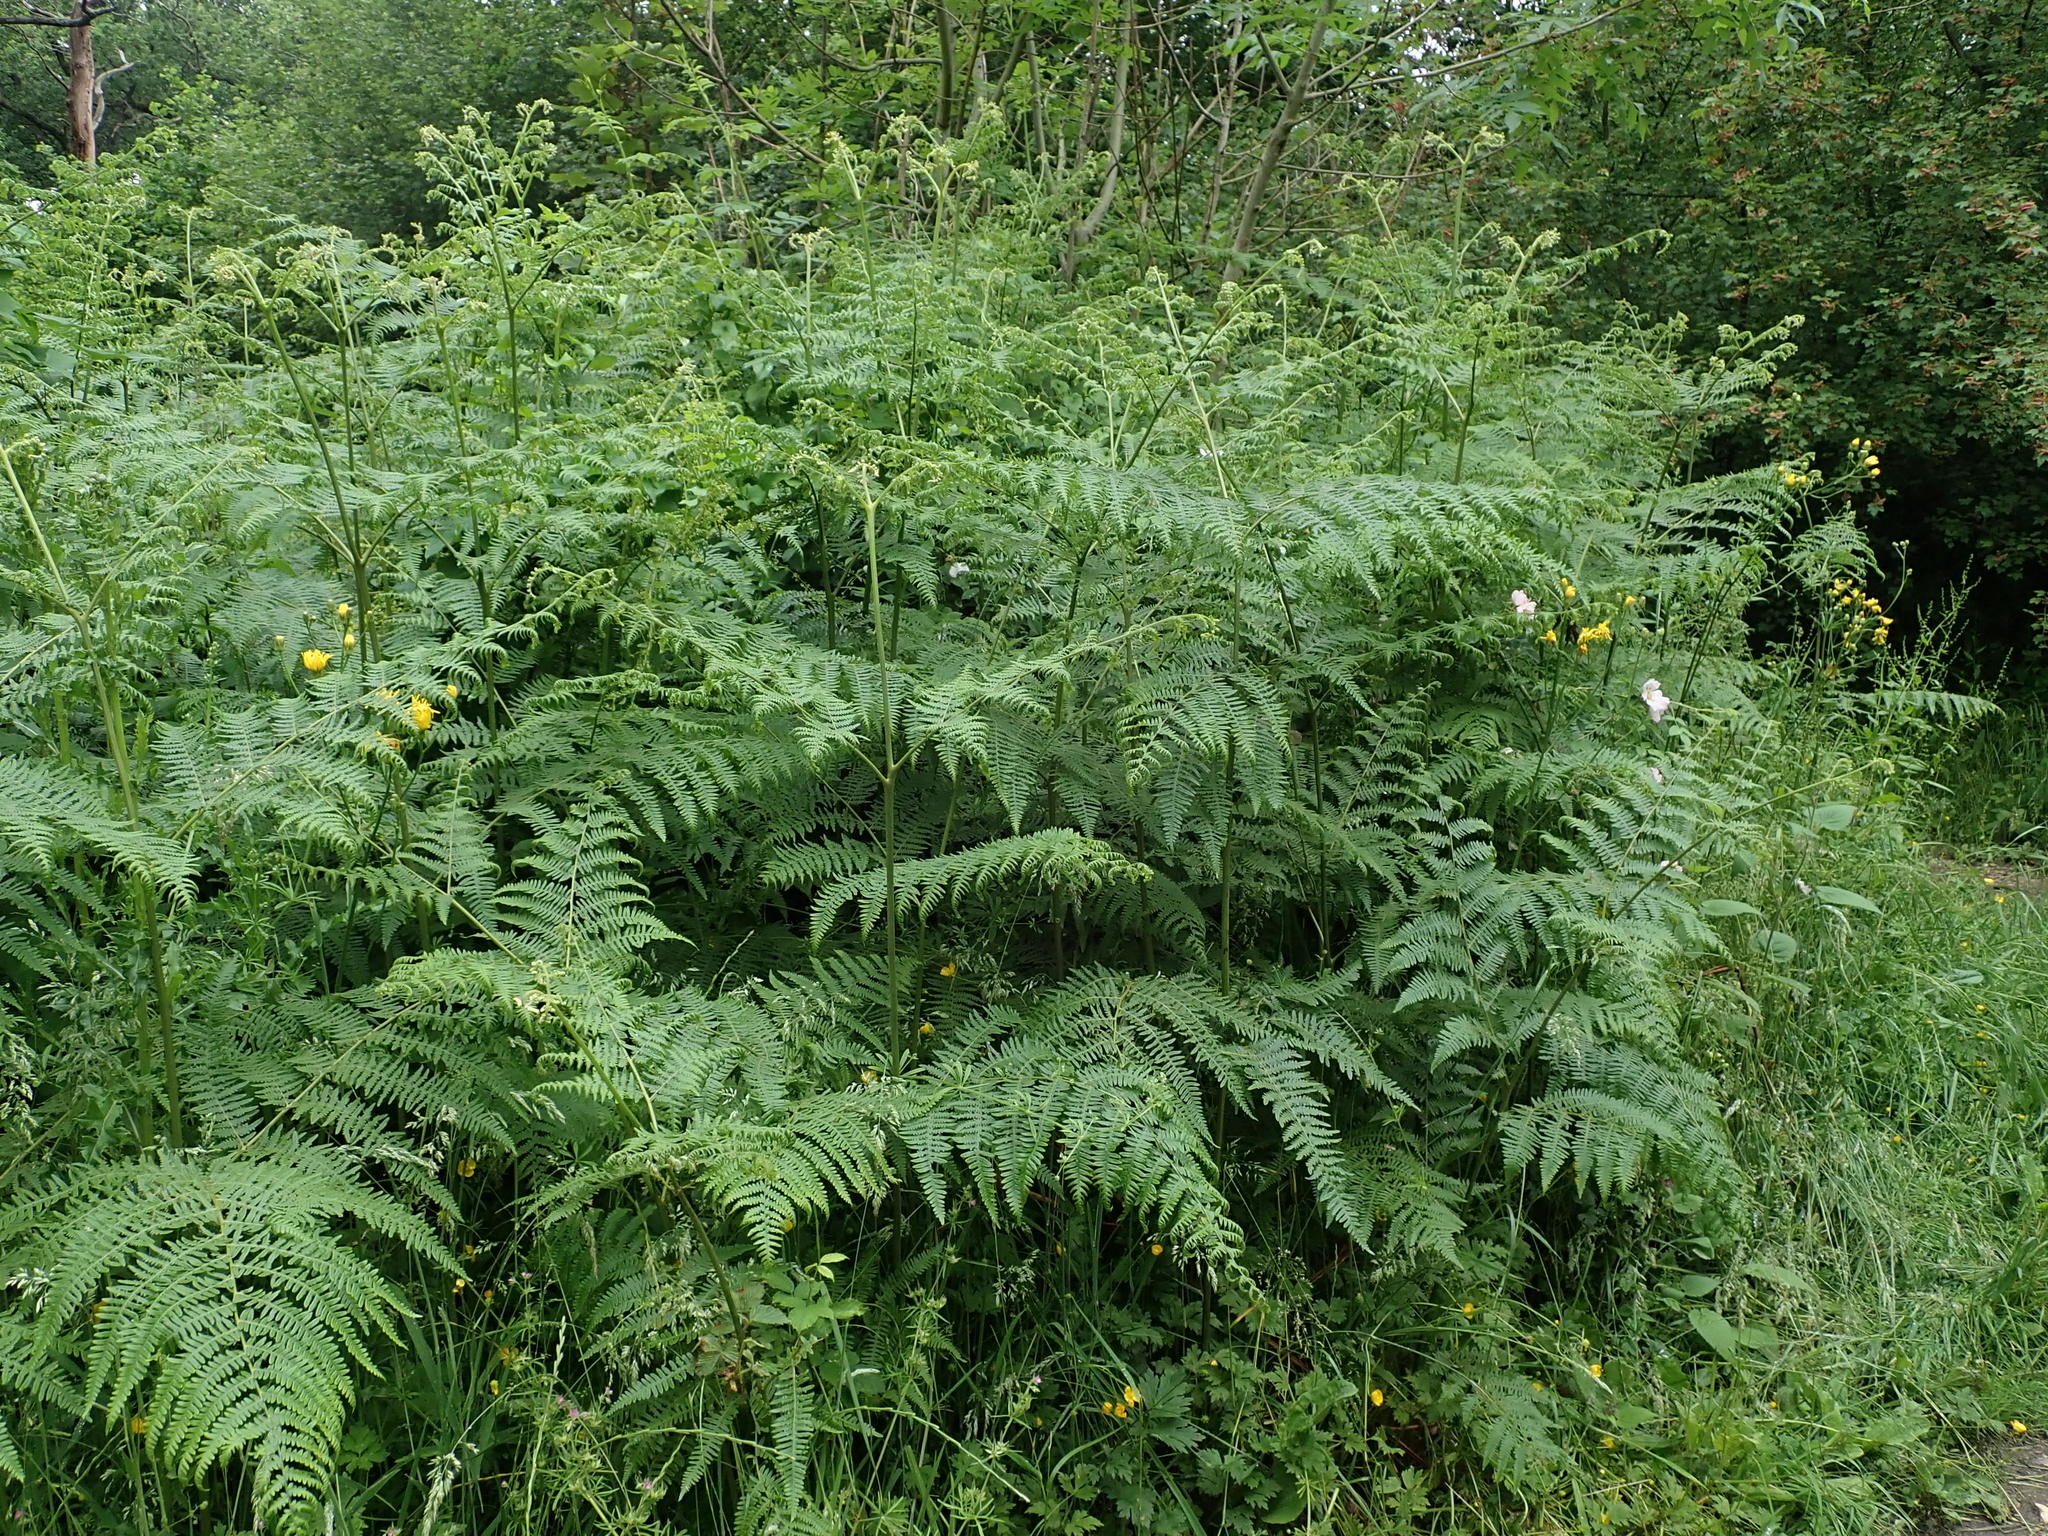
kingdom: Plantae
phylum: Tracheophyta
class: Polypodiopsida
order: Polypodiales
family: Dennstaedtiaceae
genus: Pteridium
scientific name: Pteridium aquilinum
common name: Bracken
